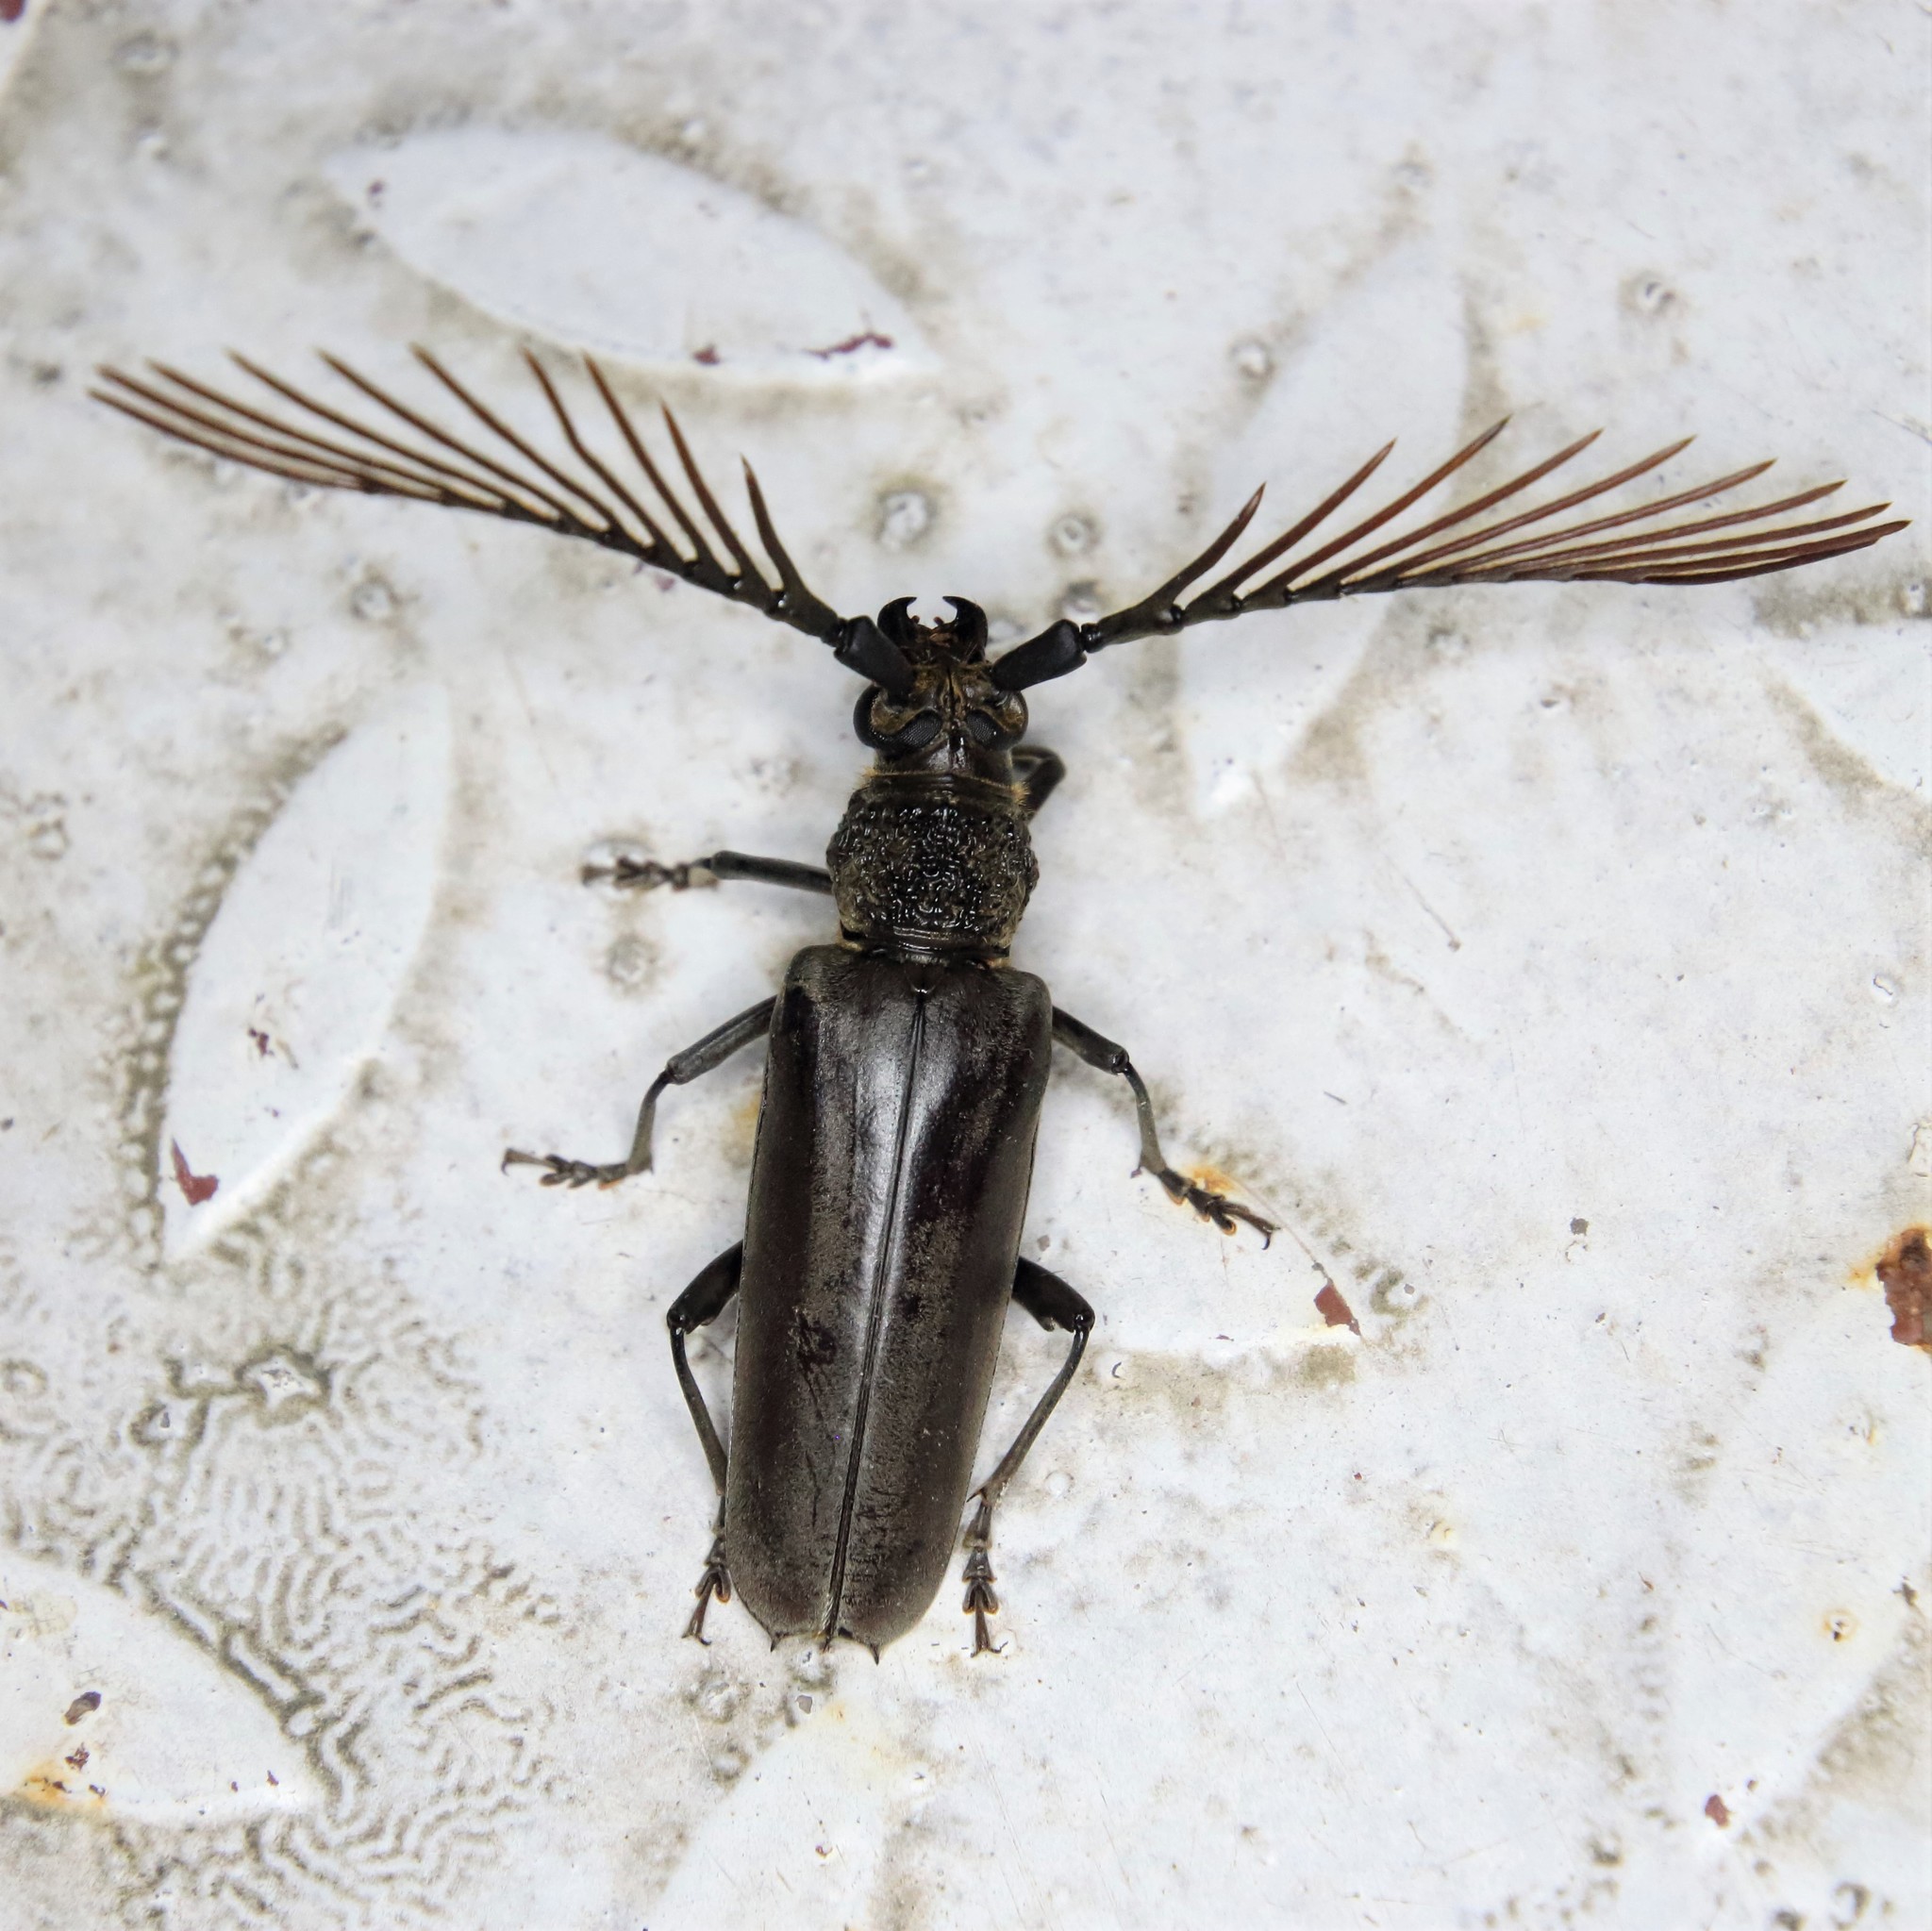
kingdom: Animalia
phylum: Arthropoda
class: Insecta
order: Coleoptera
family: Cerambycidae
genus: Cyriopalus
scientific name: Cyriopalus wallacei
